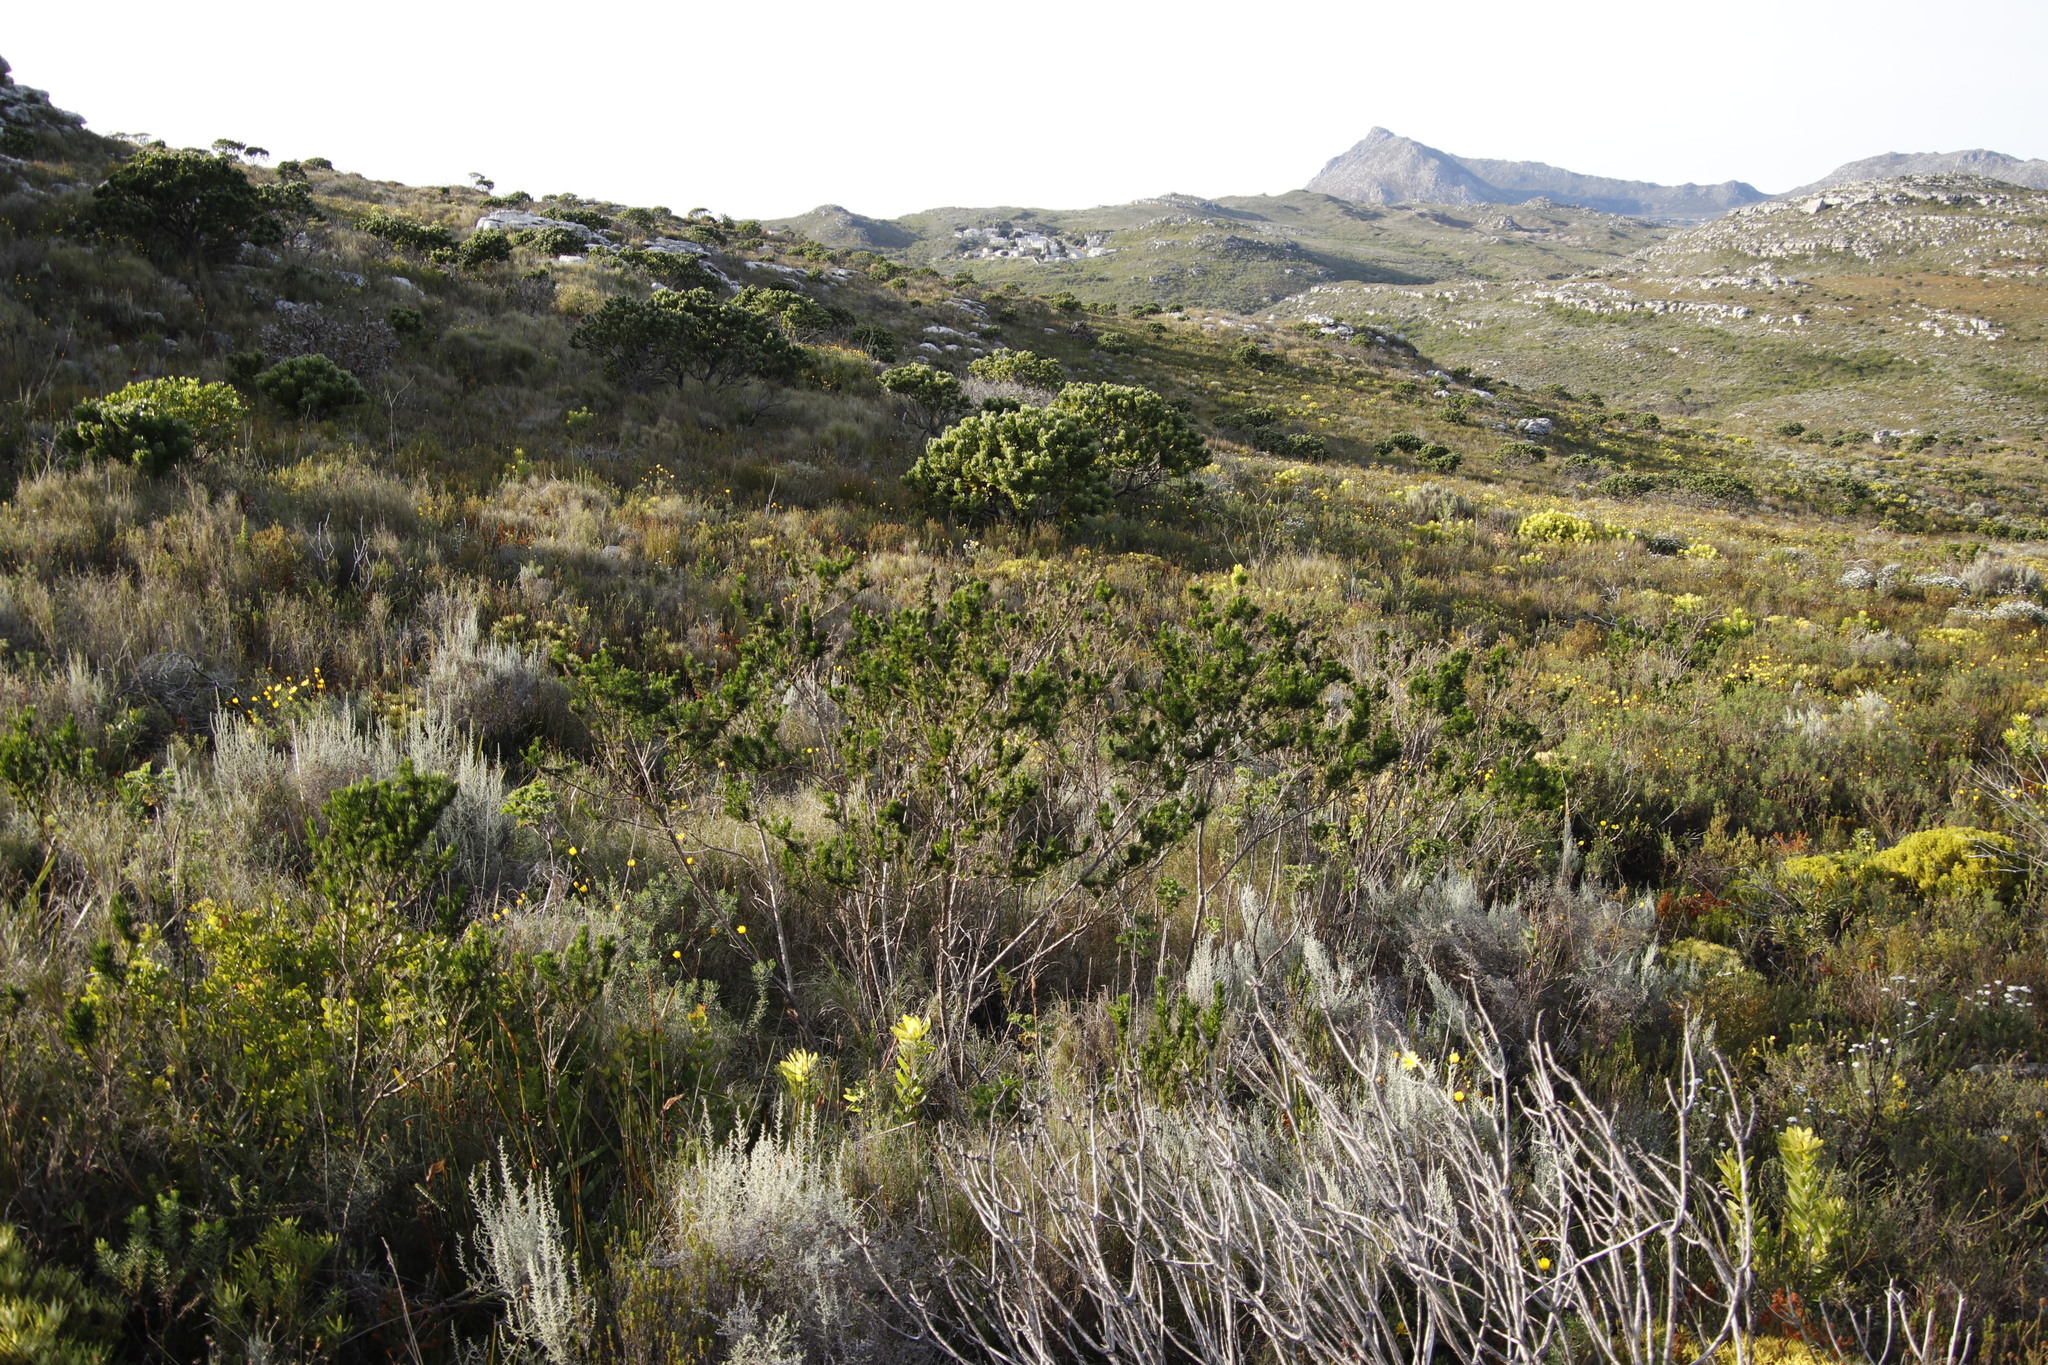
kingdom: Plantae
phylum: Tracheophyta
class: Magnoliopsida
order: Proteales
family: Proteaceae
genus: Leucospermum
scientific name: Leucospermum conocarpodendron
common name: Tree pincushion
